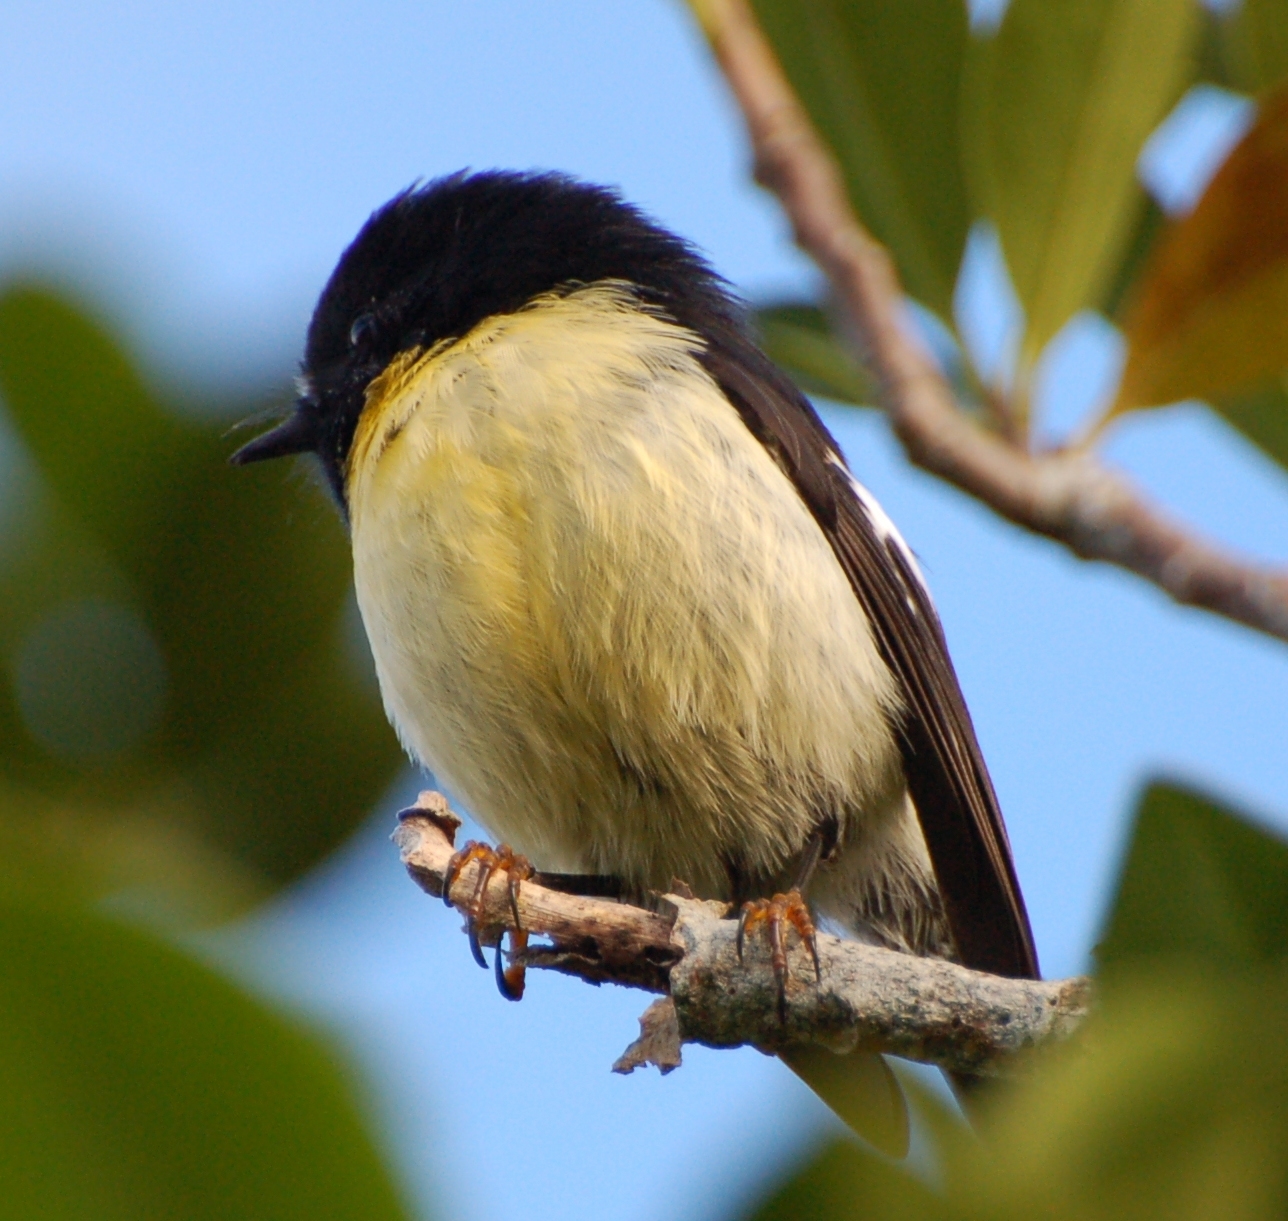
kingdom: Animalia
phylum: Chordata
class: Aves
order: Passeriformes
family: Petroicidae
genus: Petroica
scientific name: Petroica macrocephala
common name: Tomtit
